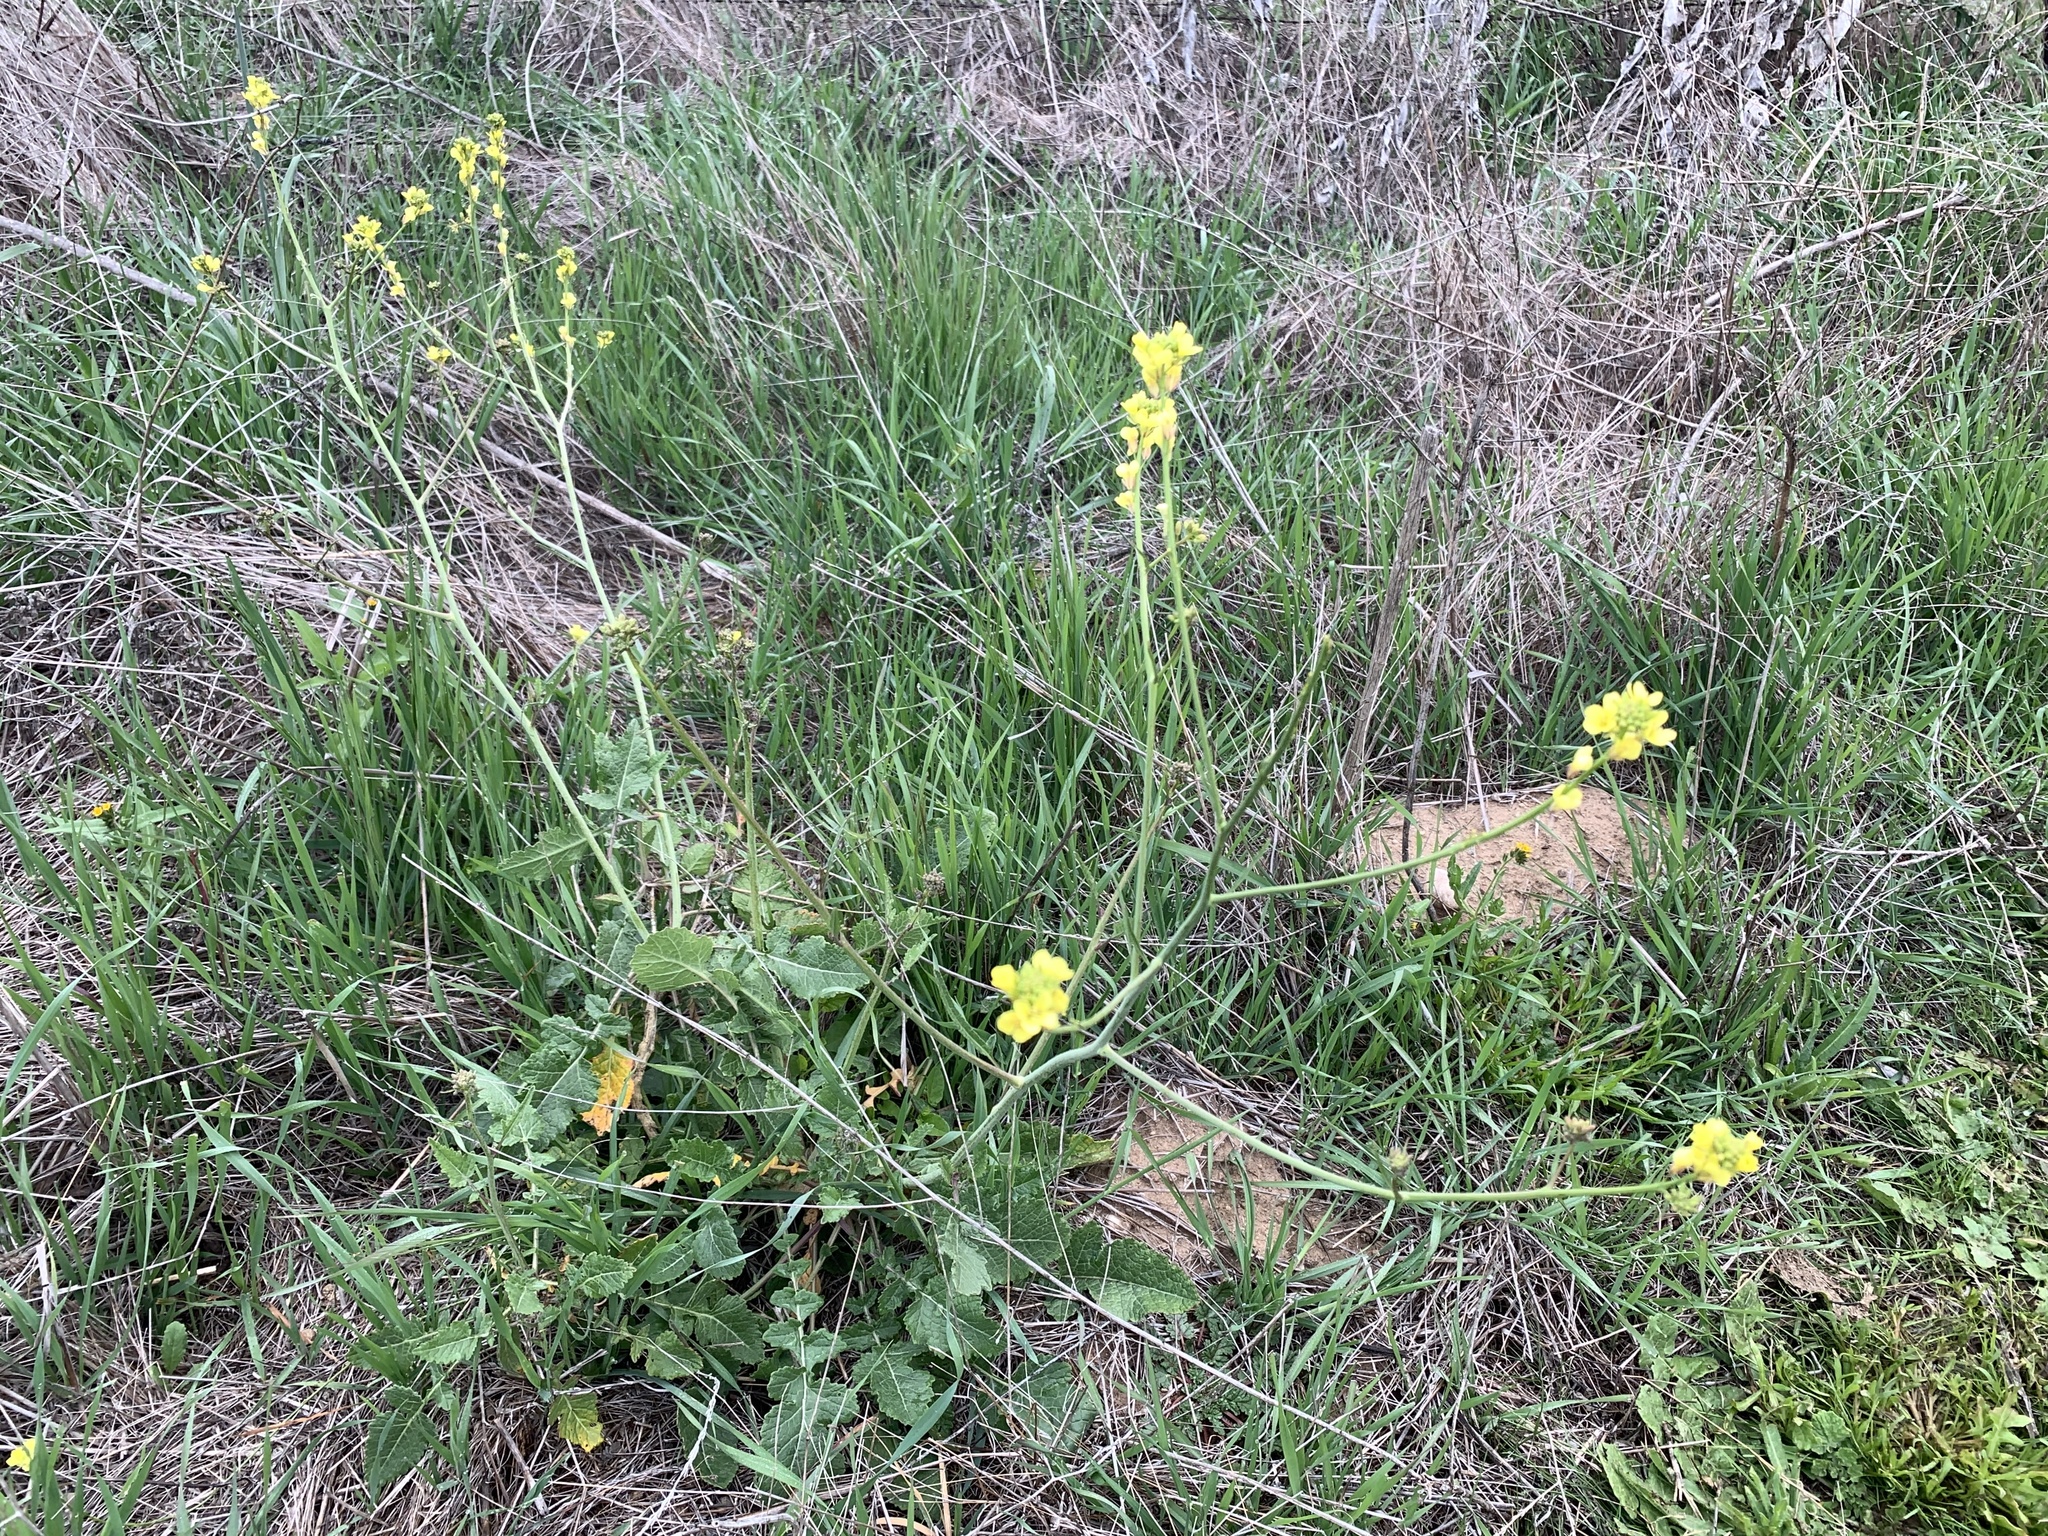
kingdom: Plantae
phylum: Tracheophyta
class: Magnoliopsida
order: Brassicales
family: Brassicaceae
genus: Hirschfeldia
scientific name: Hirschfeldia incana
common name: Hoary mustard
